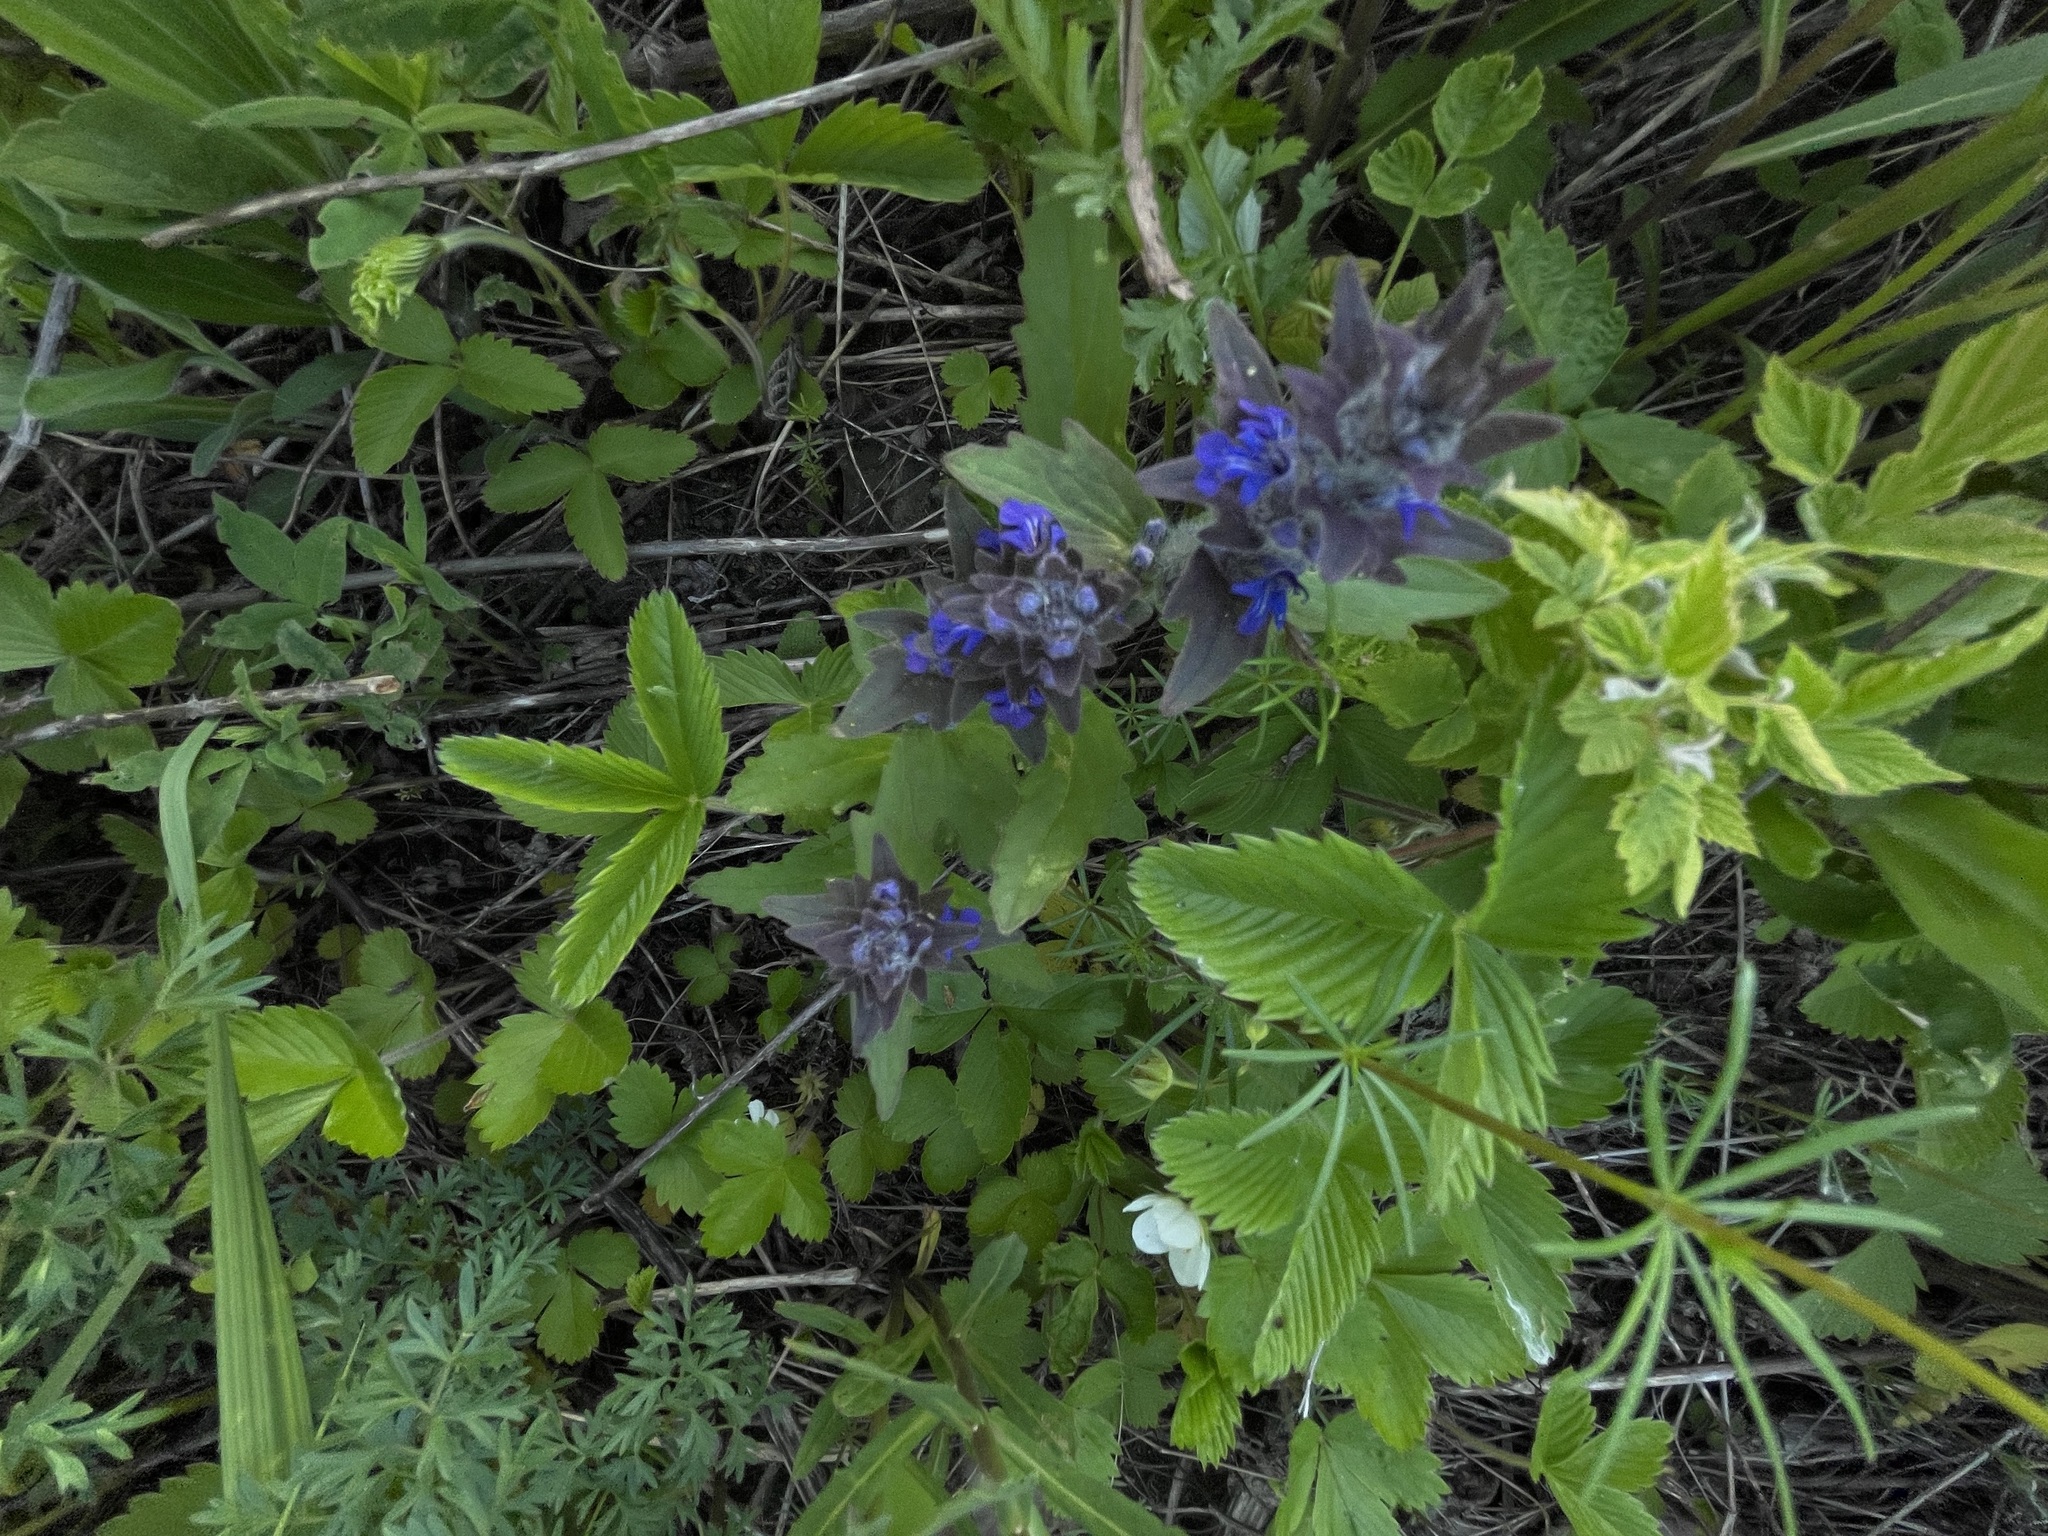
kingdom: Plantae
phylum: Tracheophyta
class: Magnoliopsida
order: Lamiales
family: Lamiaceae
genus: Ajuga
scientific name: Ajuga genevensis
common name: Blue bugle
